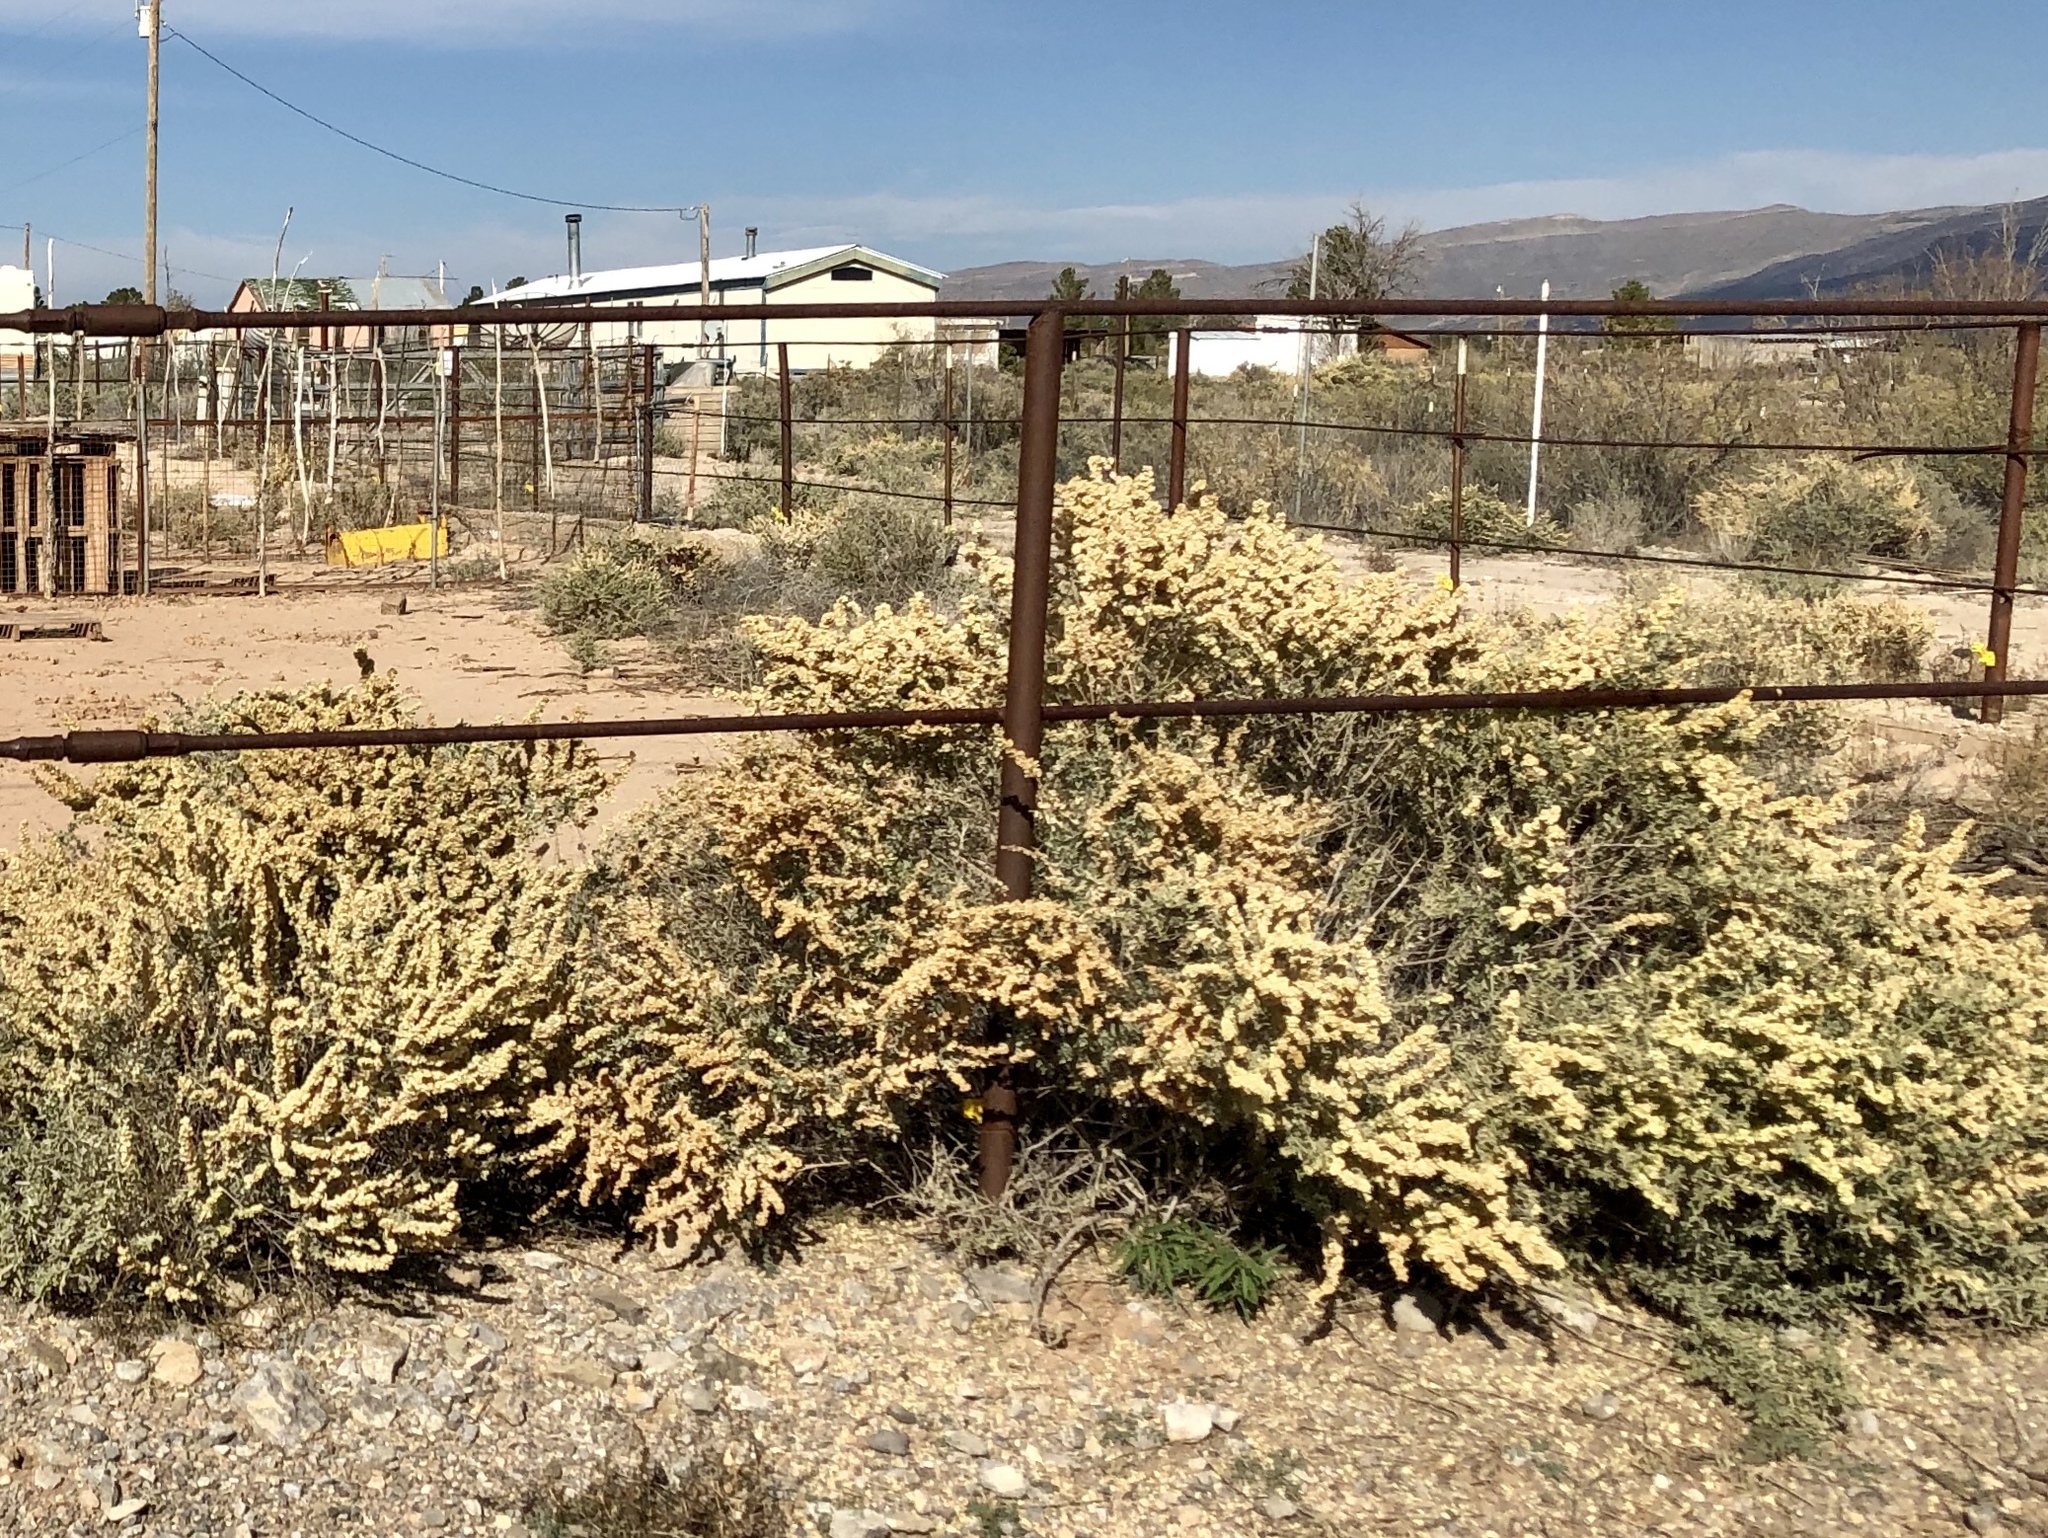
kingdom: Plantae
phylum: Tracheophyta
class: Magnoliopsida
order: Caryophyllales
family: Amaranthaceae
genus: Atriplex
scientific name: Atriplex canescens
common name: Four-wing saltbush
